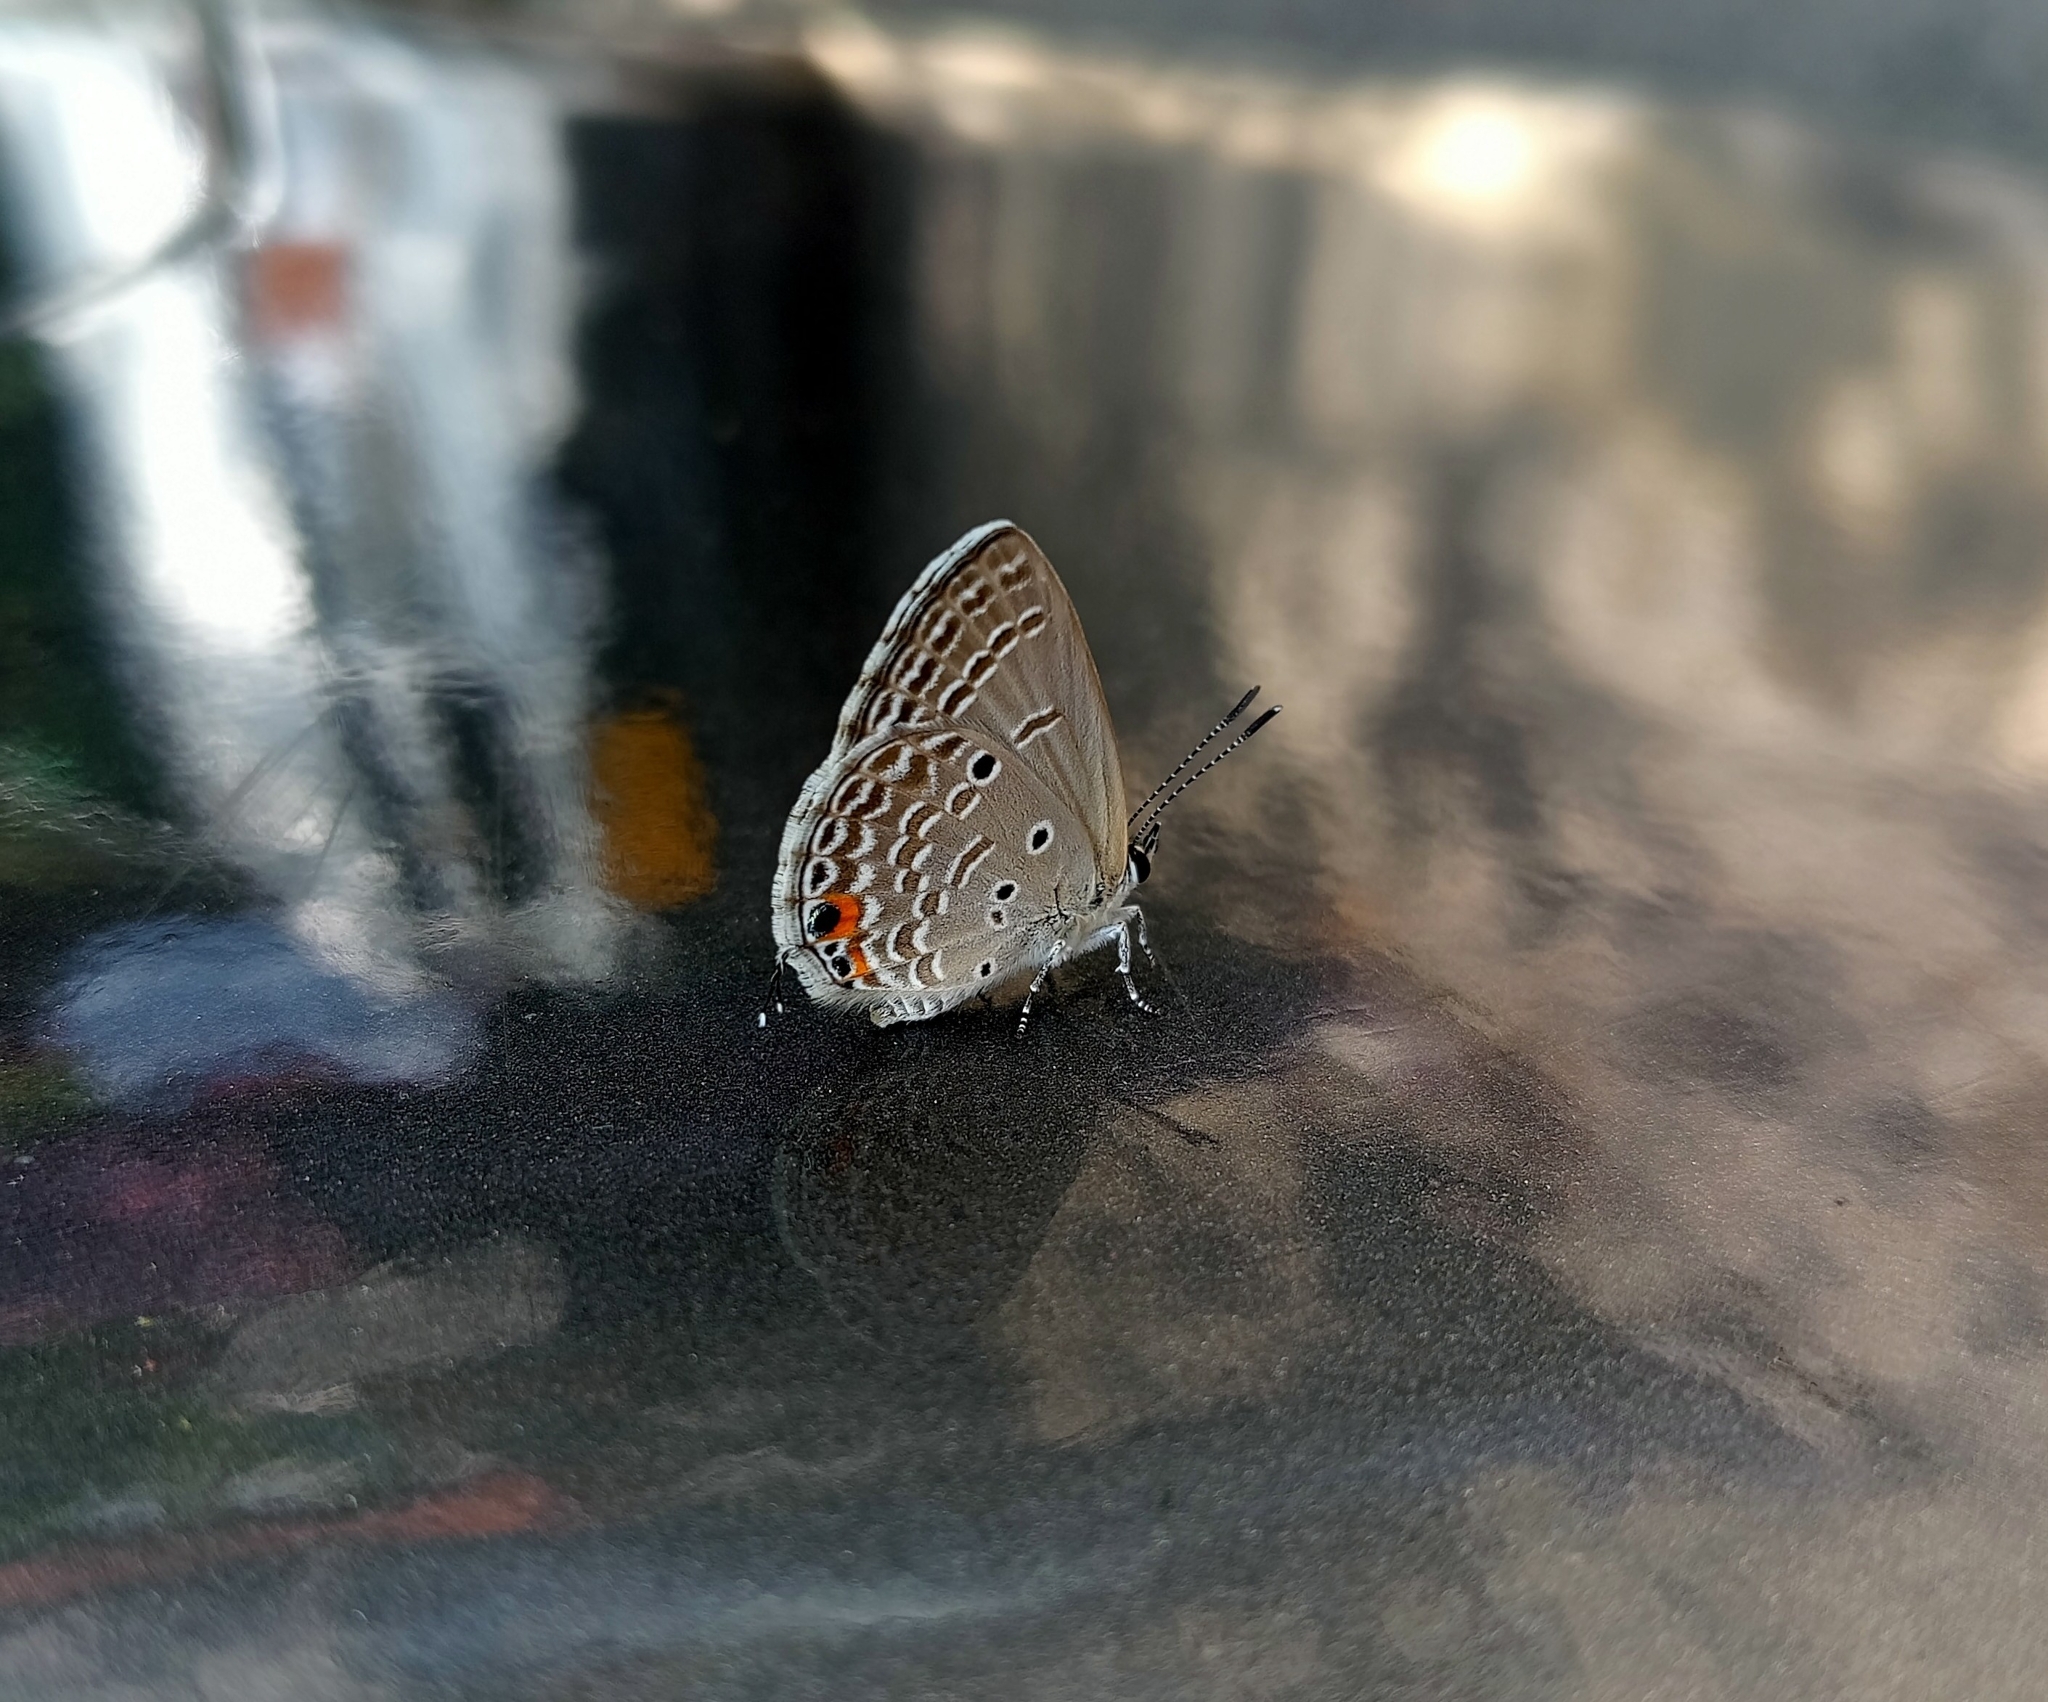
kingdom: Animalia
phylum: Arthropoda
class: Insecta
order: Lepidoptera
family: Lycaenidae
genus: Luthrodes
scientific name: Luthrodes pandava
